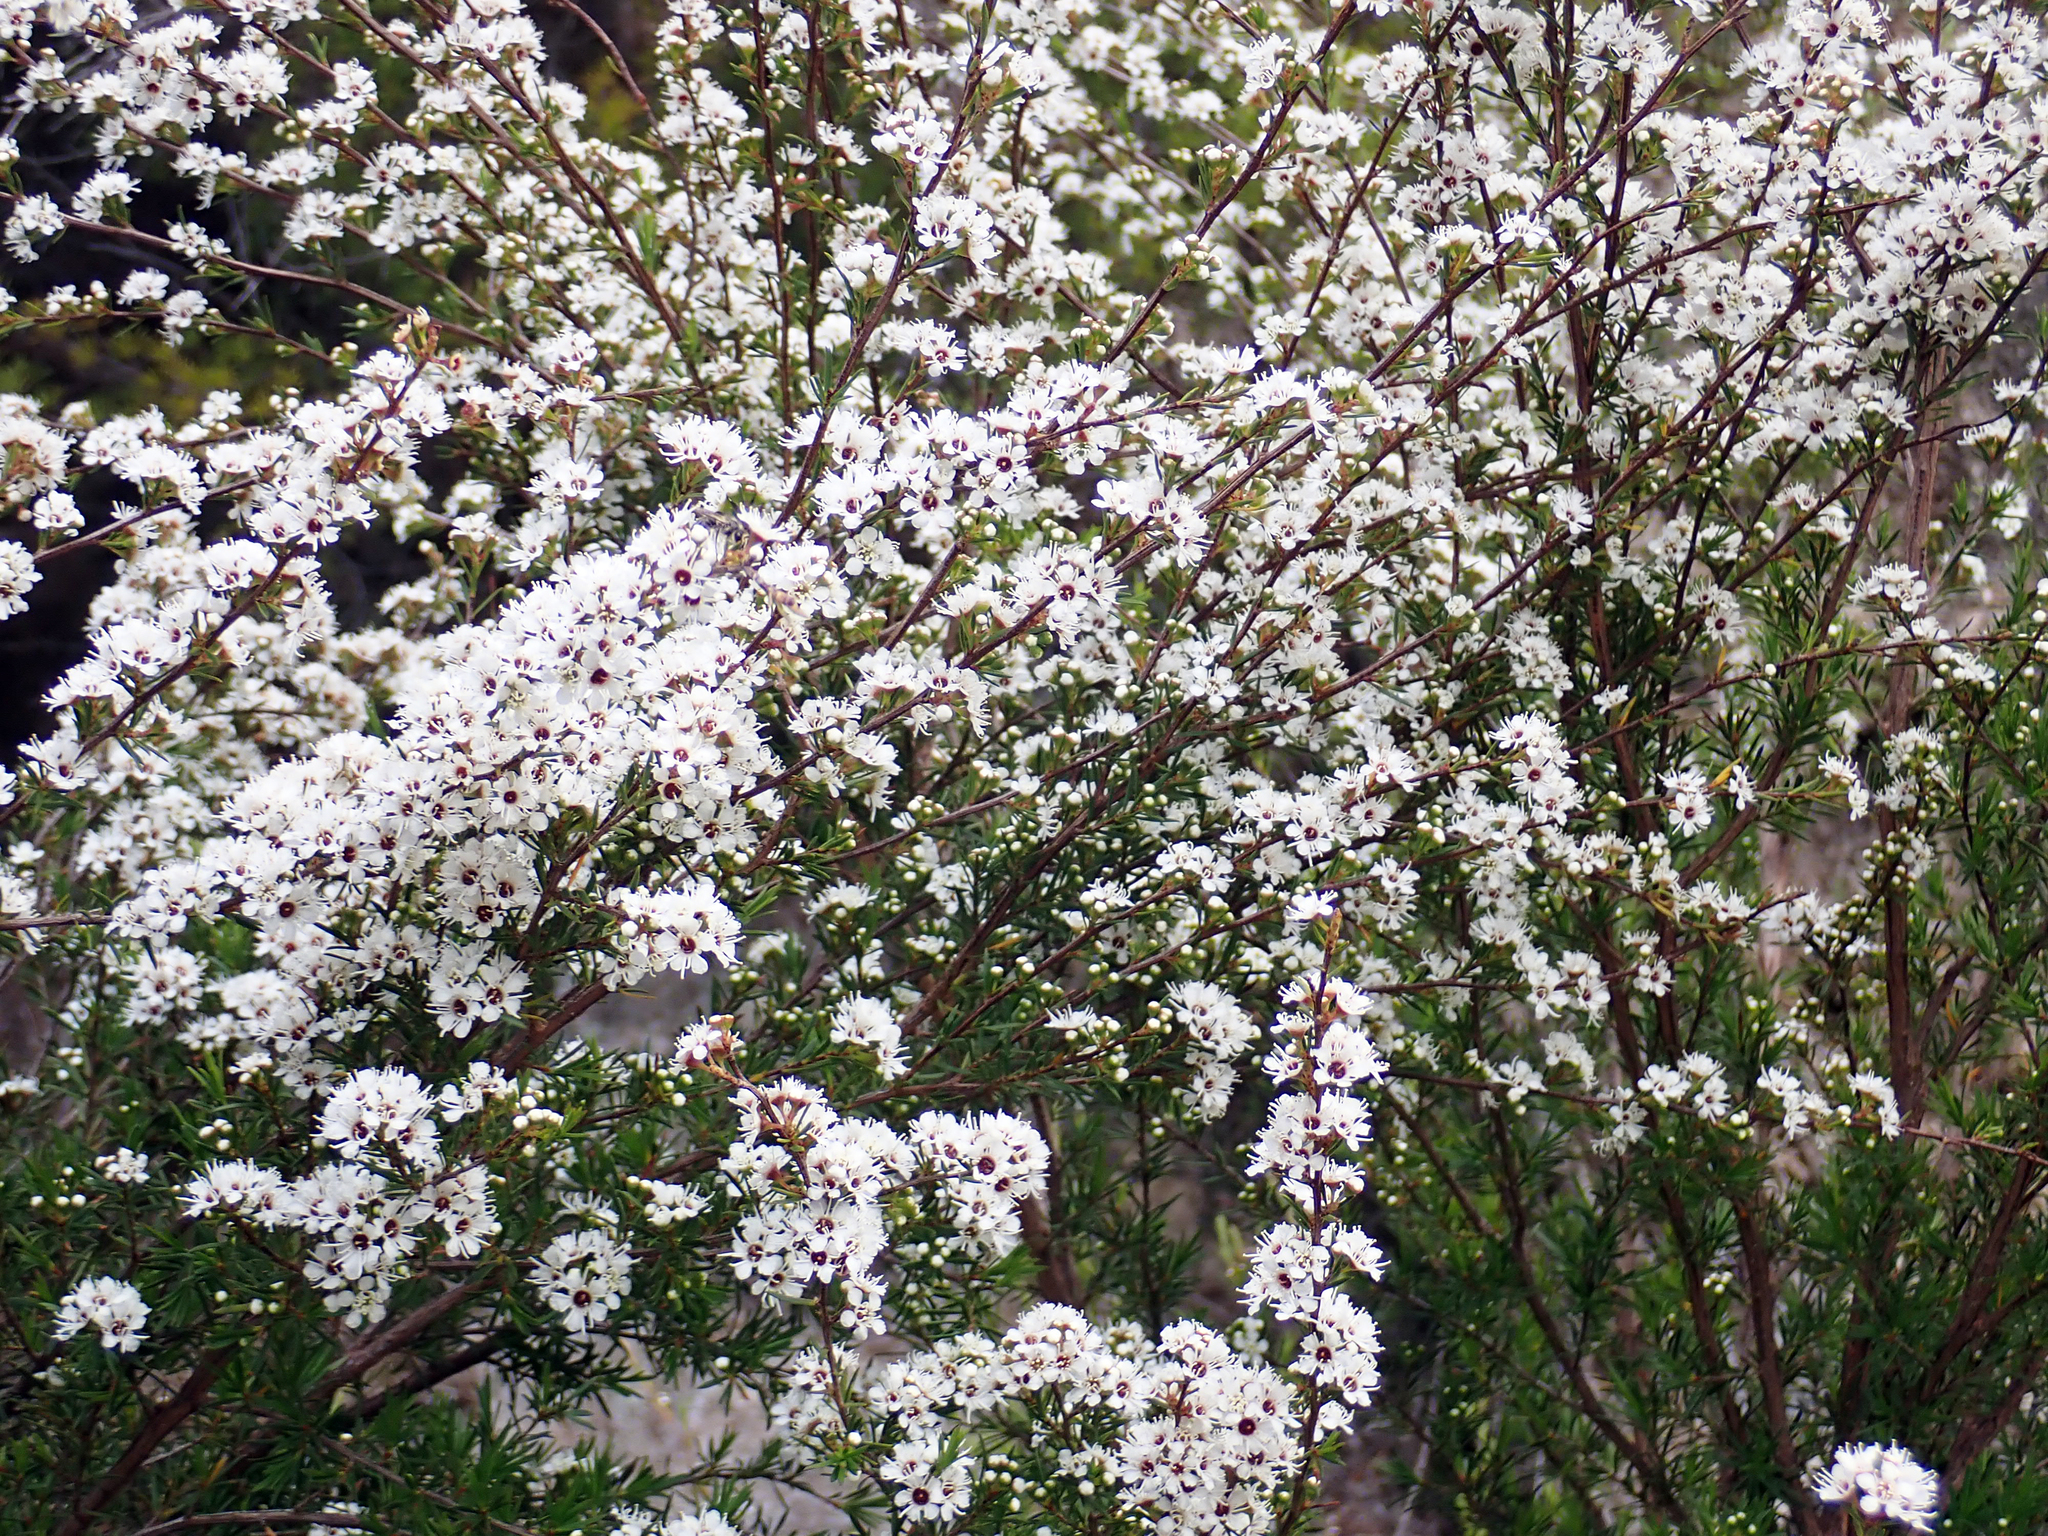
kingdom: Plantae
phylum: Tracheophyta
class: Magnoliopsida
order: Myrtales
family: Myrtaceae
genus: Kunzea
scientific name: Kunzea ericoides
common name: Burgan
